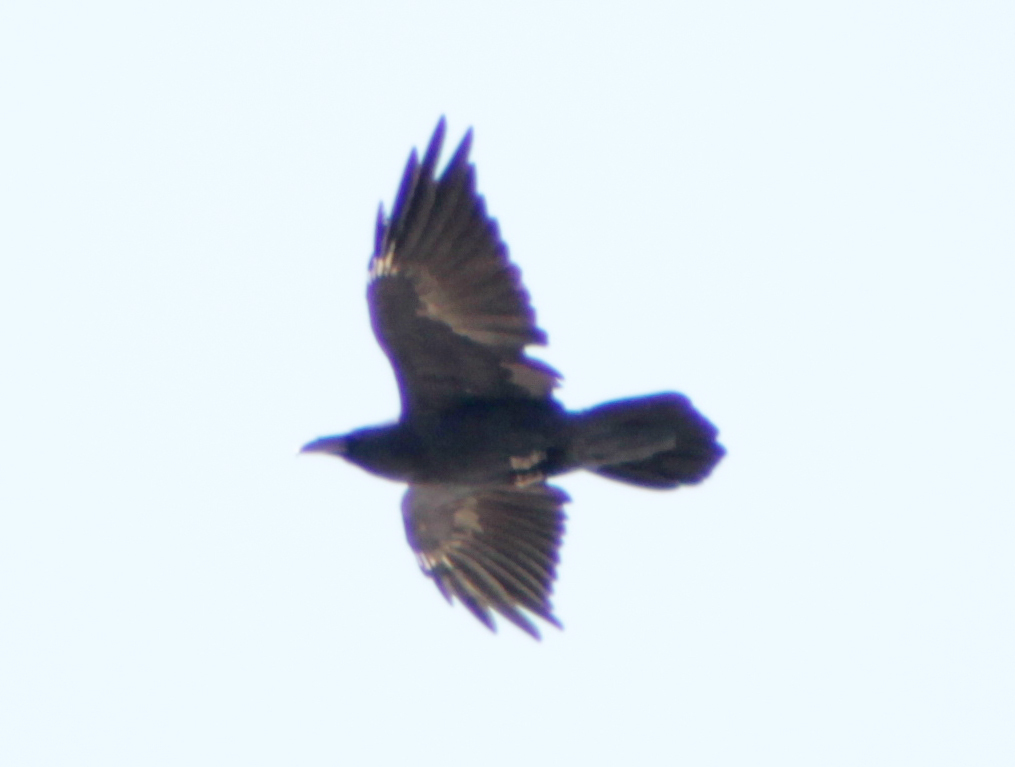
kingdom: Animalia
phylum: Chordata
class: Aves
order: Passeriformes
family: Corvidae
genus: Corvus
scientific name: Corvus corax
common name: Common raven
